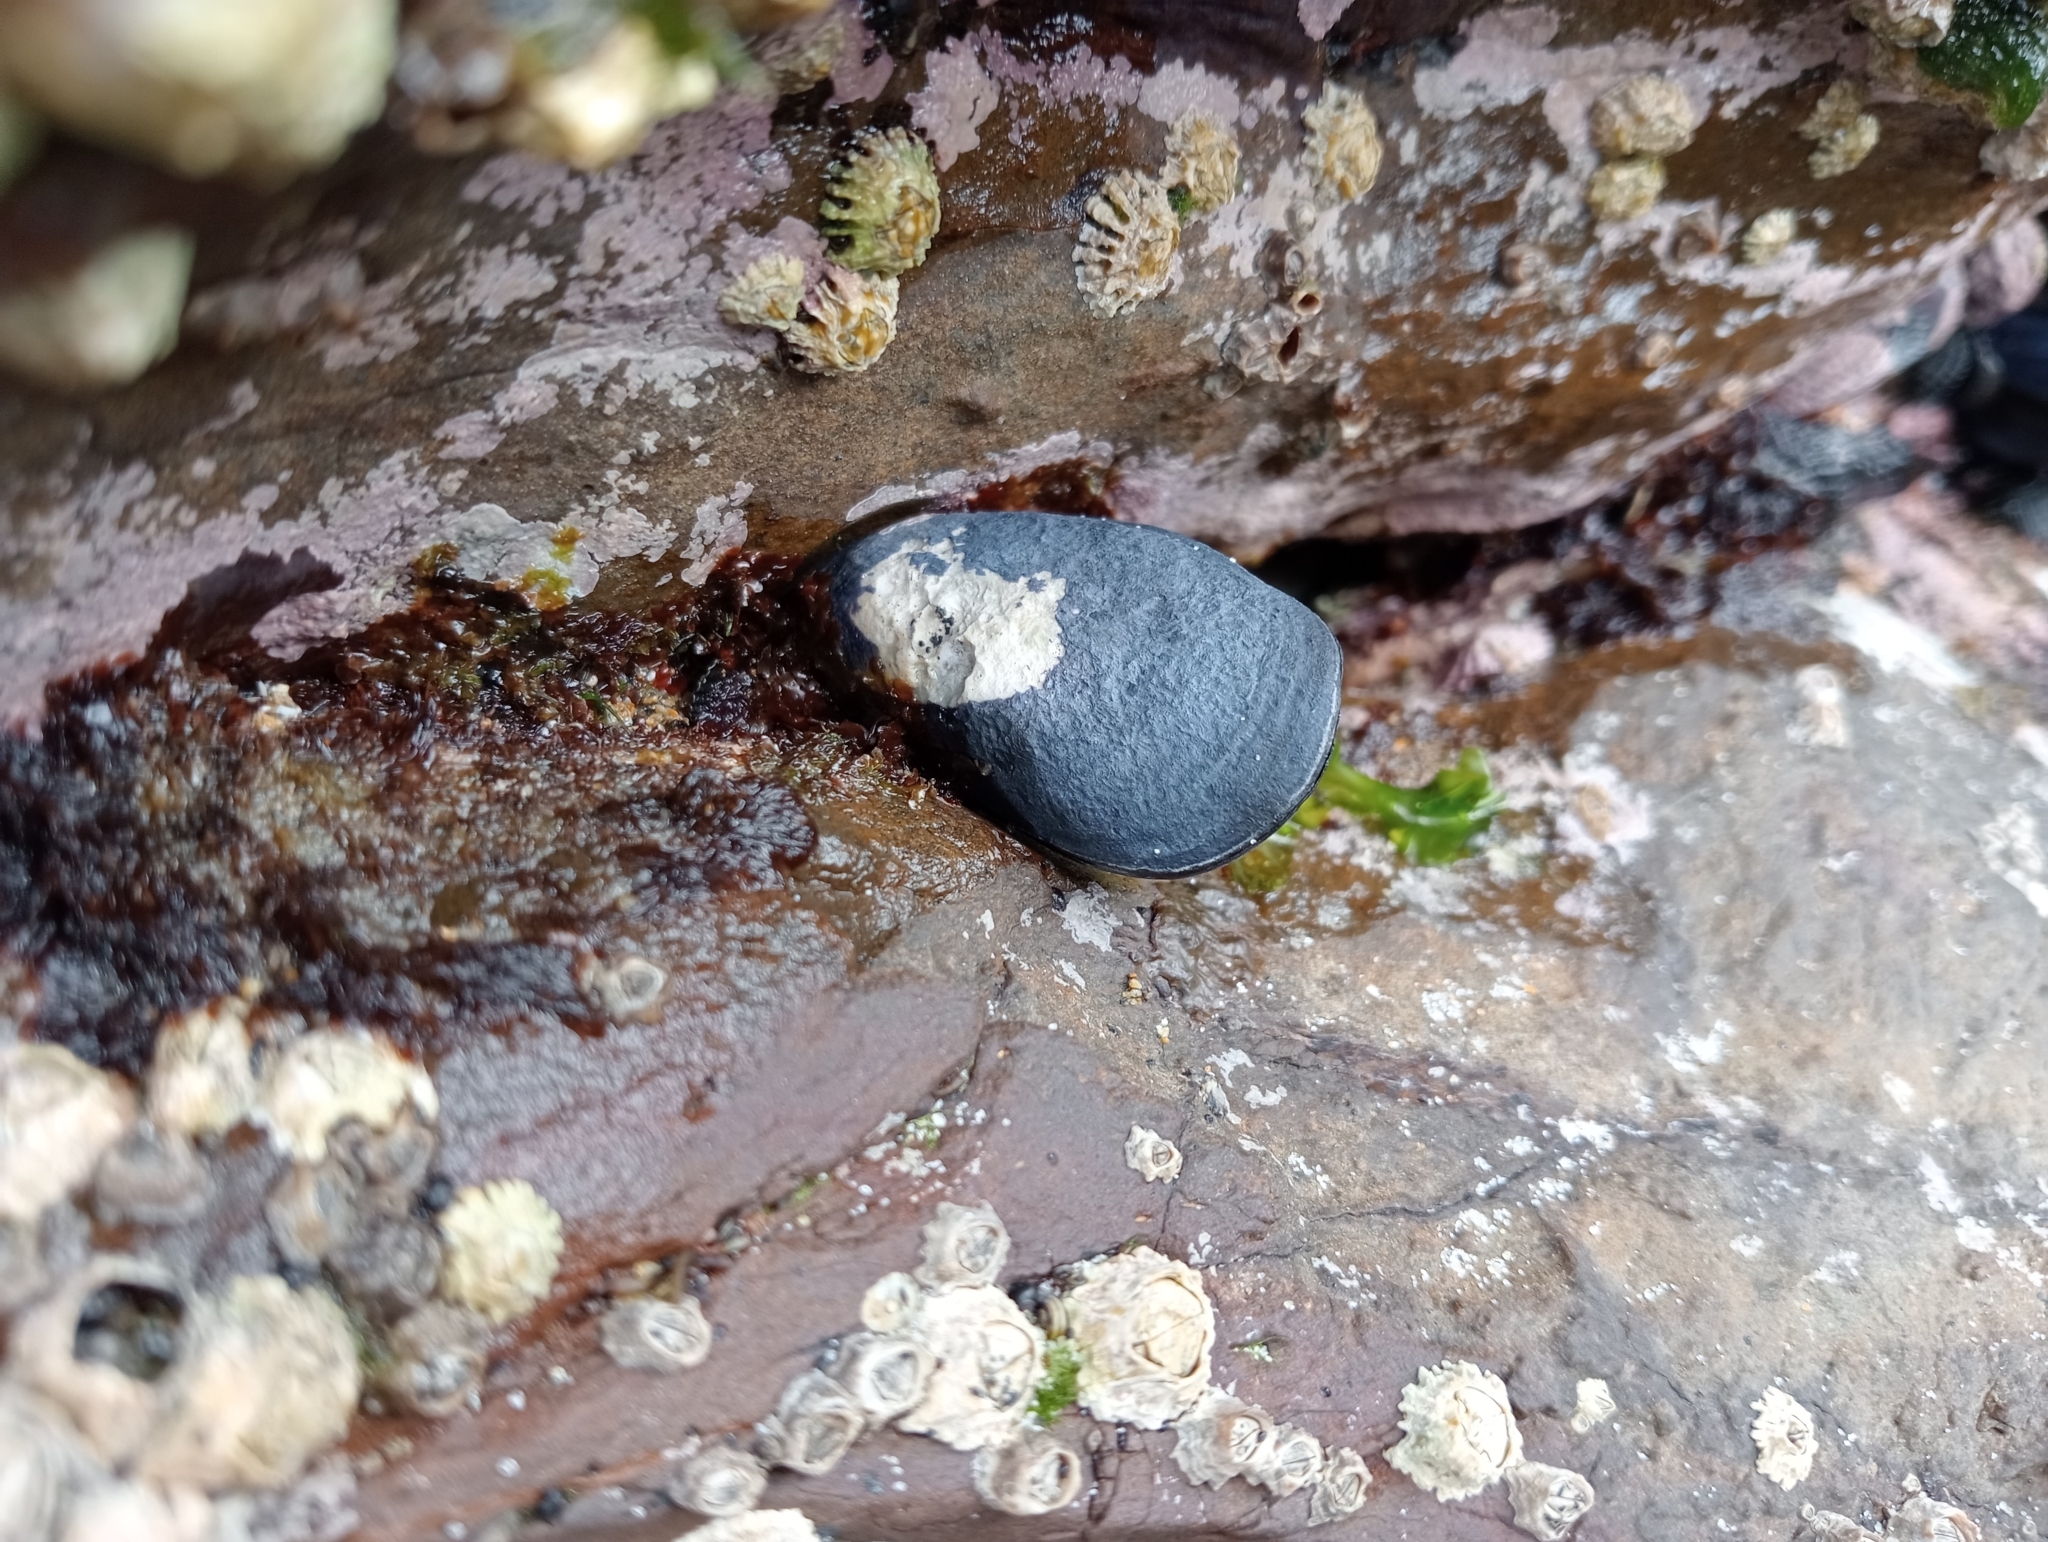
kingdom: Animalia
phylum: Mollusca
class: Bivalvia
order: Mytilida
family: Mytilidae
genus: Mytilus
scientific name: Mytilus planulatus
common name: Australian mussel
